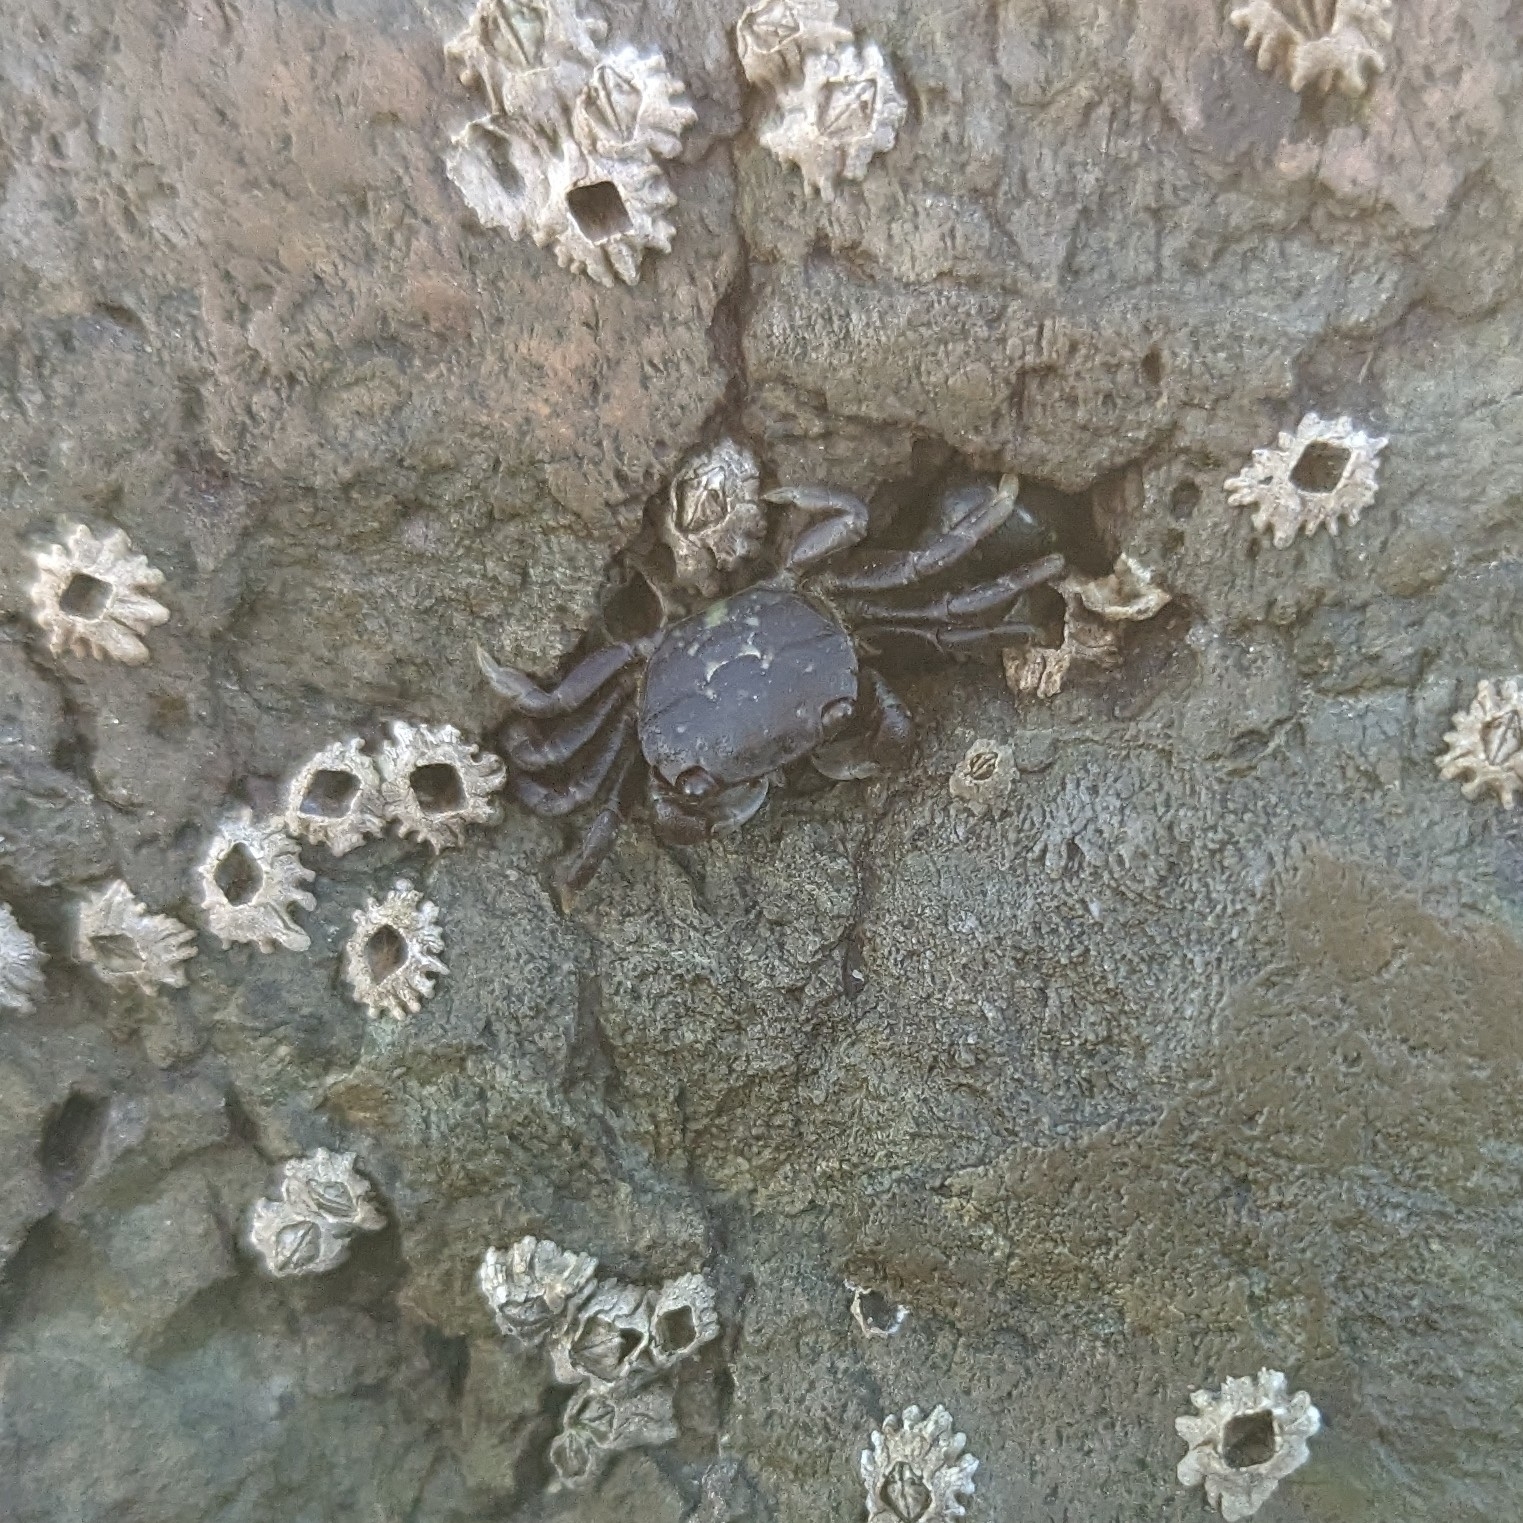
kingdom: Animalia
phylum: Arthropoda
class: Malacostraca
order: Decapoda
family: Varunidae
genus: Hemigrapsus
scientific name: Hemigrapsus nudus
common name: Purple shore crab
